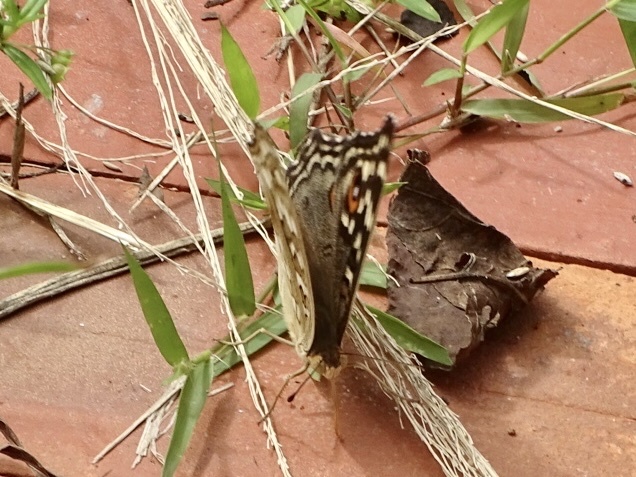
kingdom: Animalia
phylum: Arthropoda
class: Insecta
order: Lepidoptera
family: Nymphalidae
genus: Junonia
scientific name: Junonia lemonias
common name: Lemon pansy
